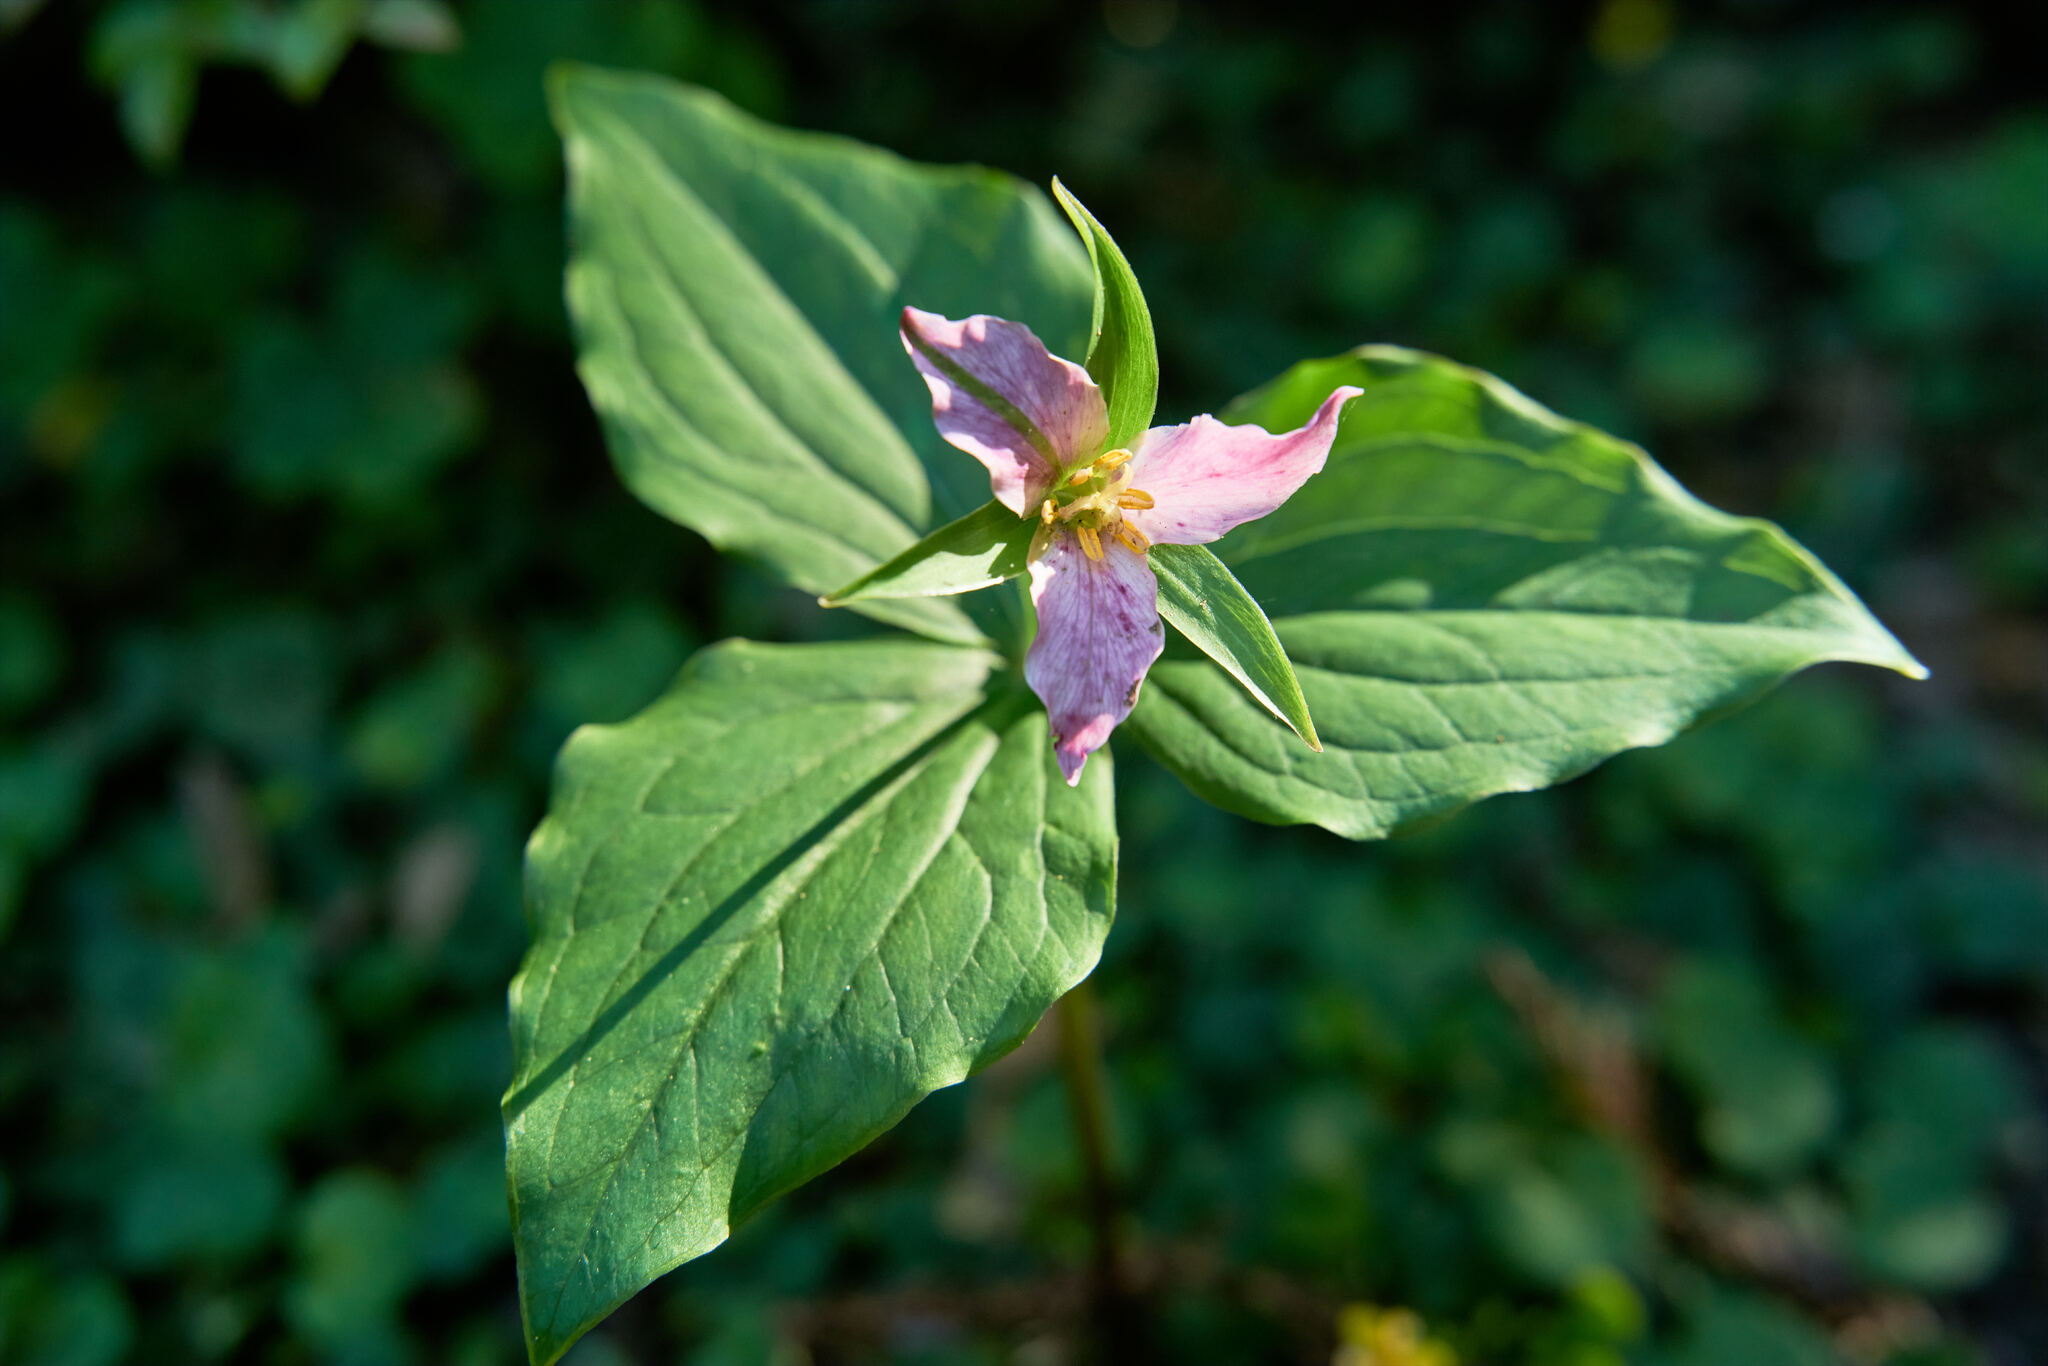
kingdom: Plantae
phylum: Tracheophyta
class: Liliopsida
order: Liliales
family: Melanthiaceae
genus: Trillium
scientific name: Trillium ovatum
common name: Pacific trillium
